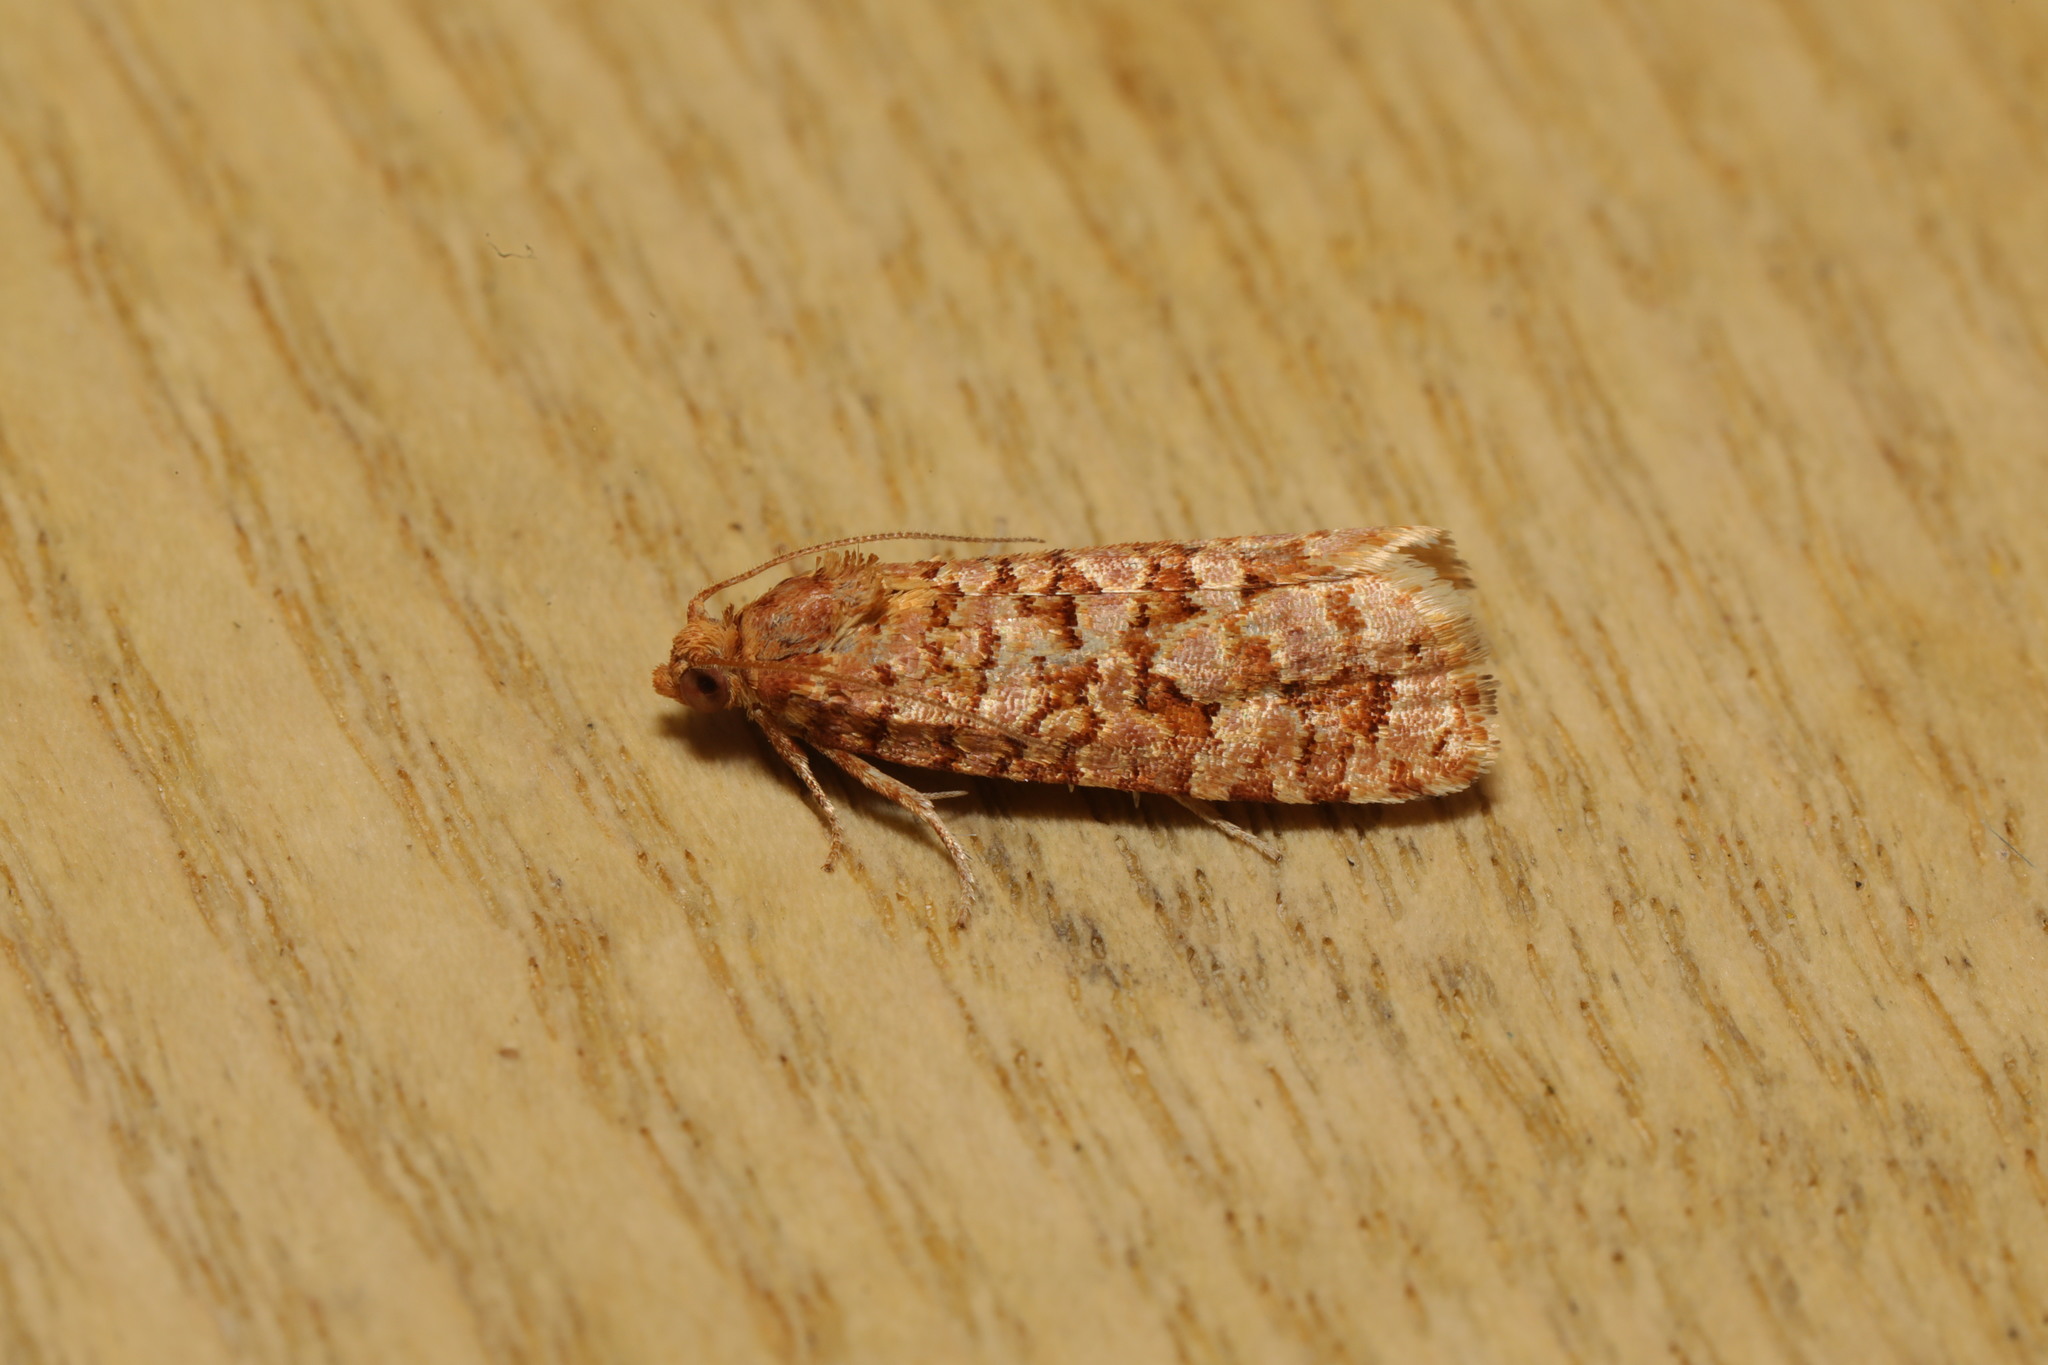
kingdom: Animalia
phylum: Arthropoda
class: Insecta
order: Lepidoptera
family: Tortricidae
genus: Lozotaeniodes
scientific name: Lozotaeniodes formosana
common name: Orange pine twist
